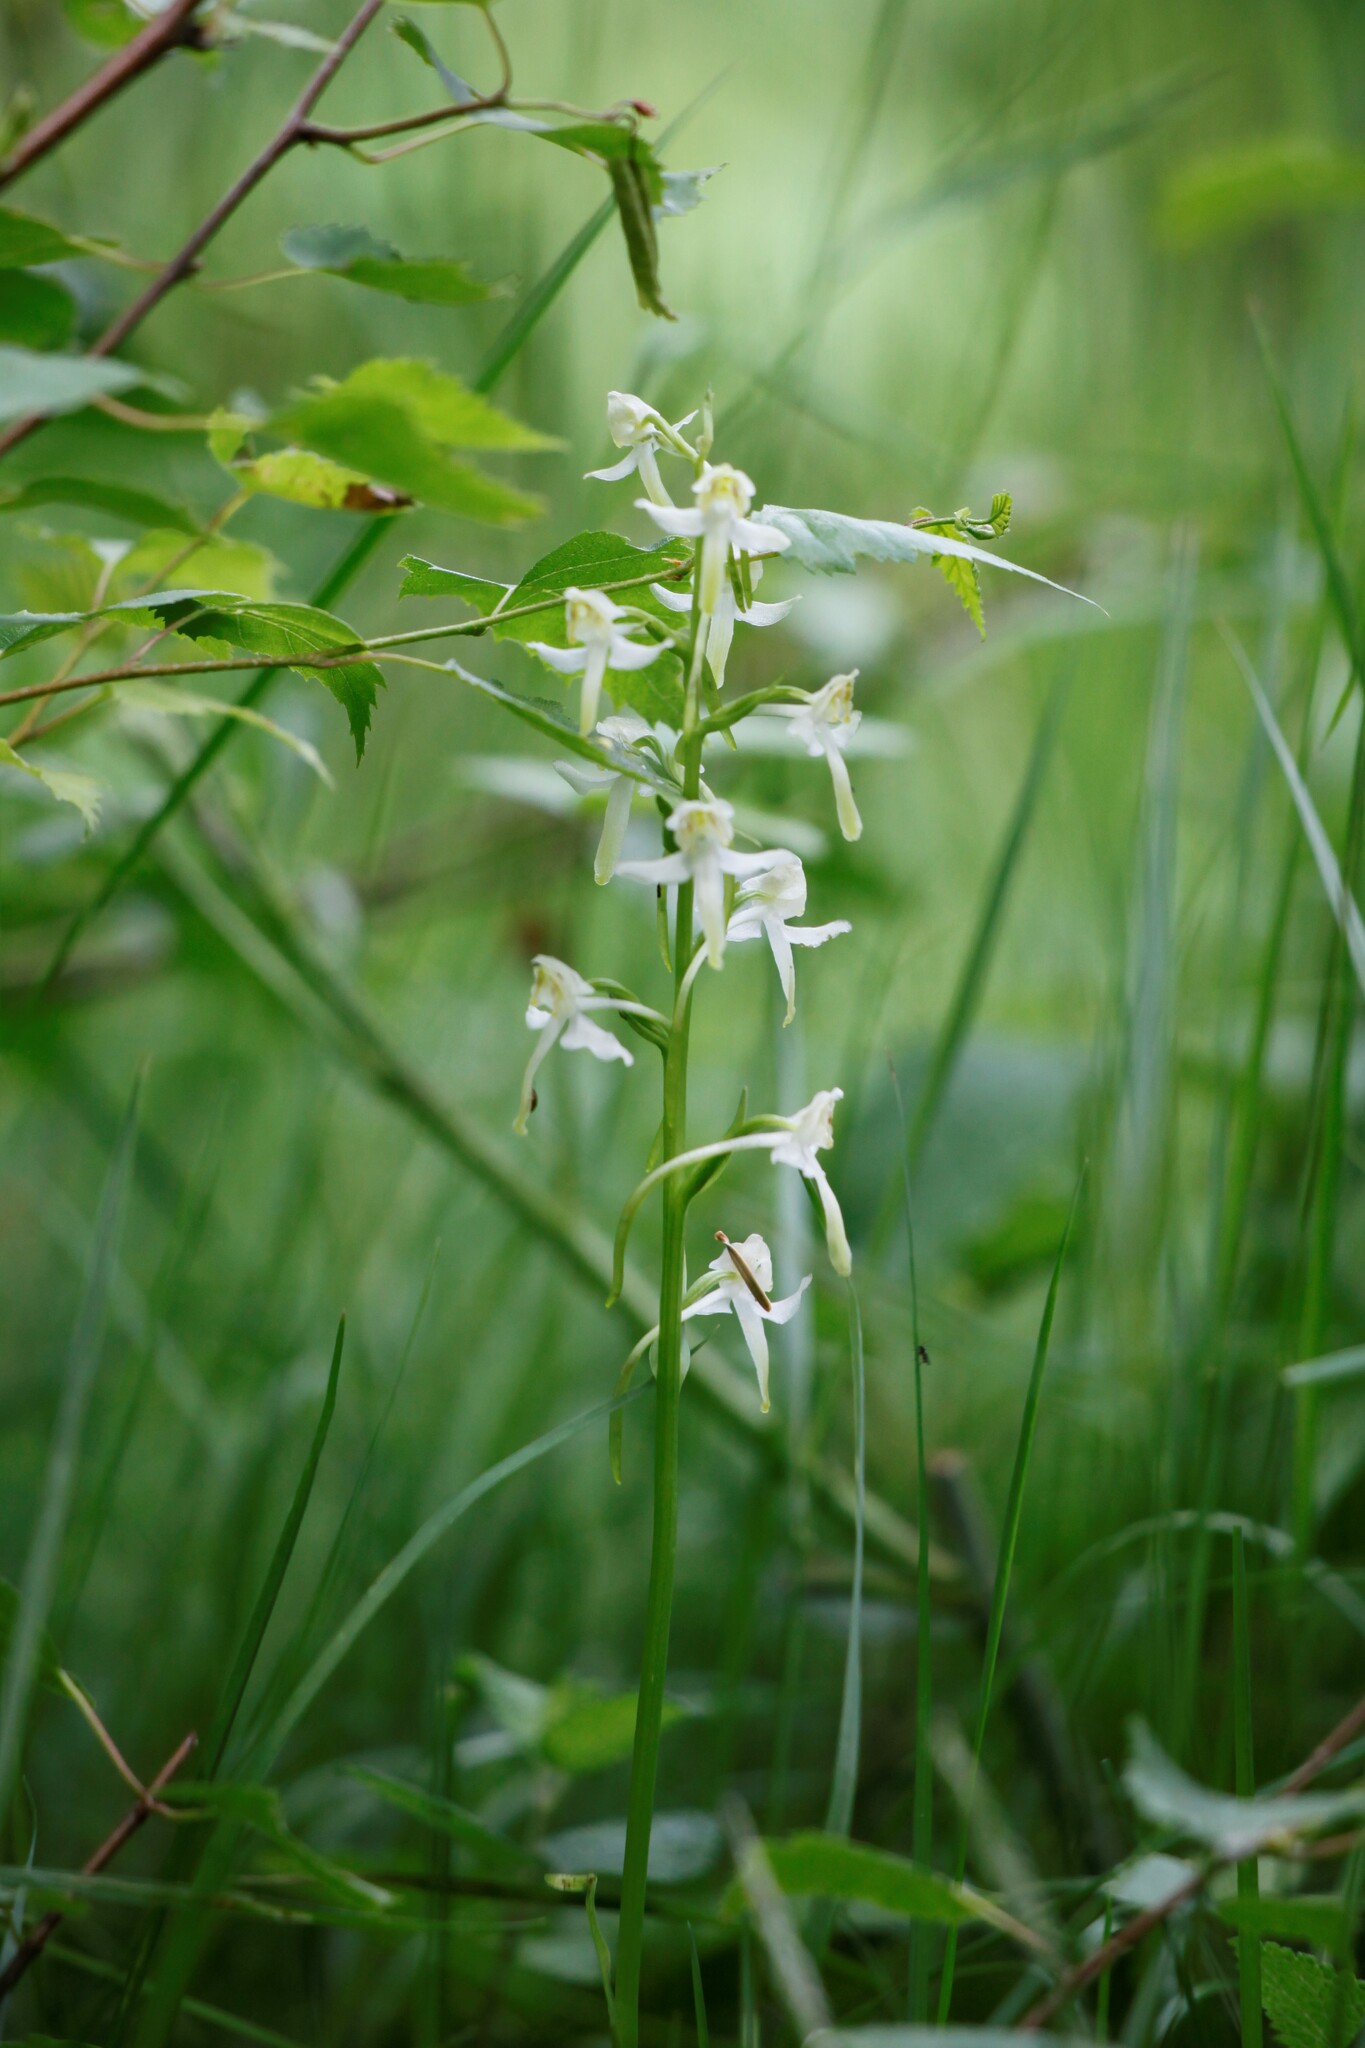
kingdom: Plantae
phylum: Tracheophyta
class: Liliopsida
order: Asparagales
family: Orchidaceae
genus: Platanthera
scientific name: Platanthera chlorantha
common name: Greater butterfly-orchid
